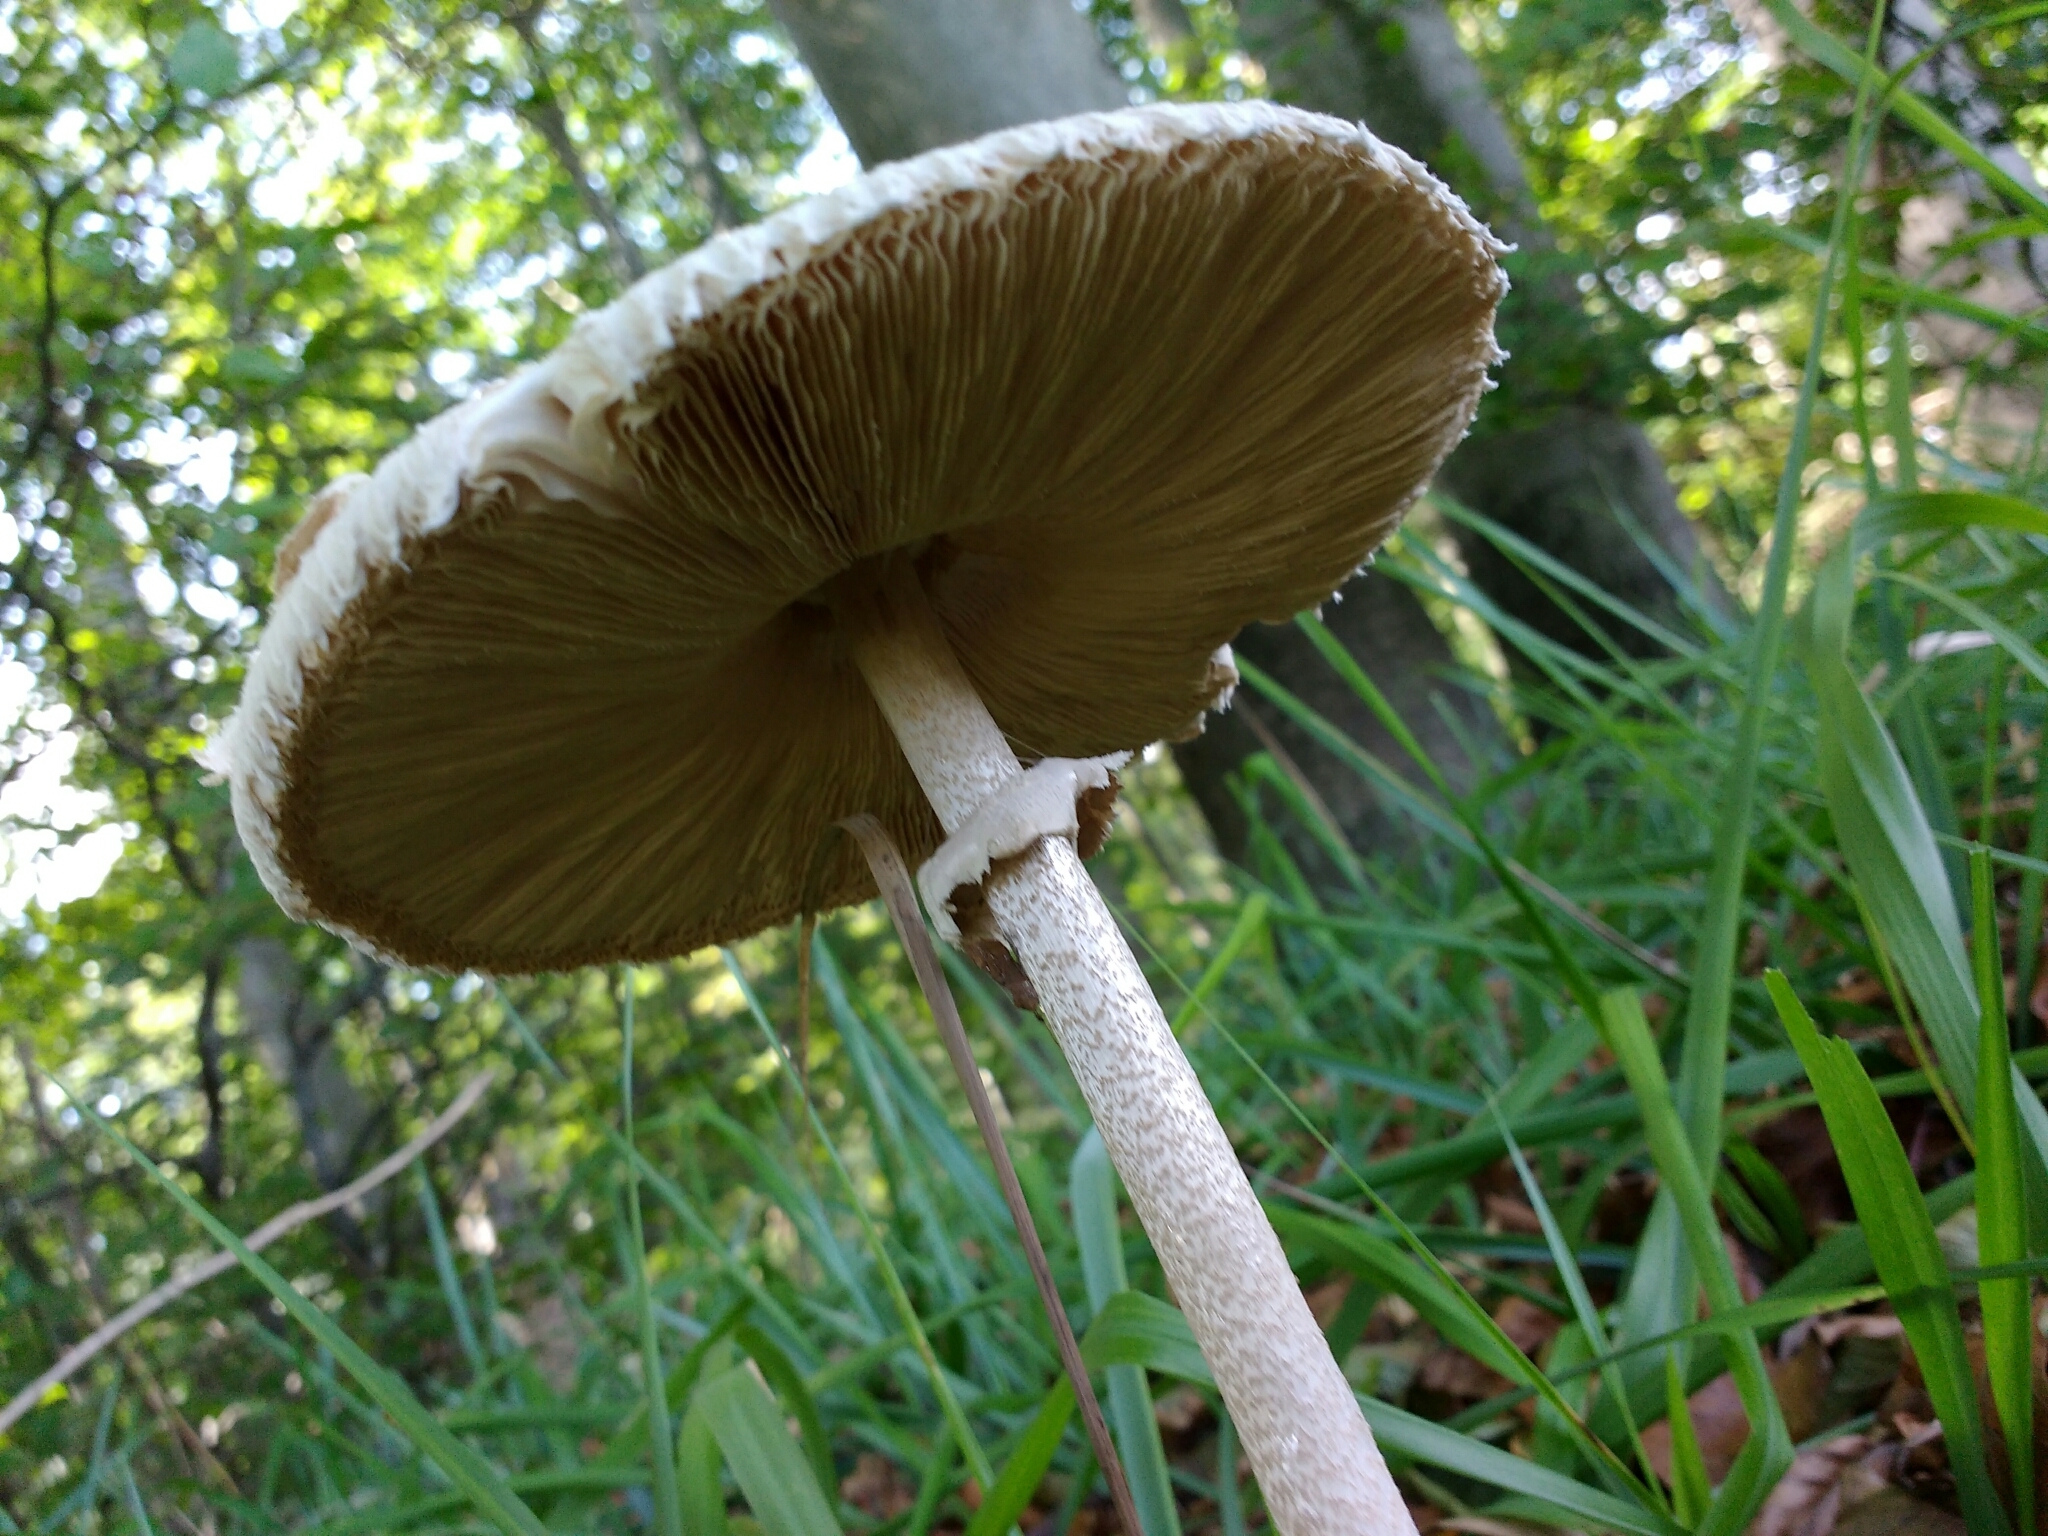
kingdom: Fungi
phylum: Basidiomycota
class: Agaricomycetes
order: Agaricales
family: Agaricaceae
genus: Macrolepiota
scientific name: Macrolepiota procera
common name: Parasol
